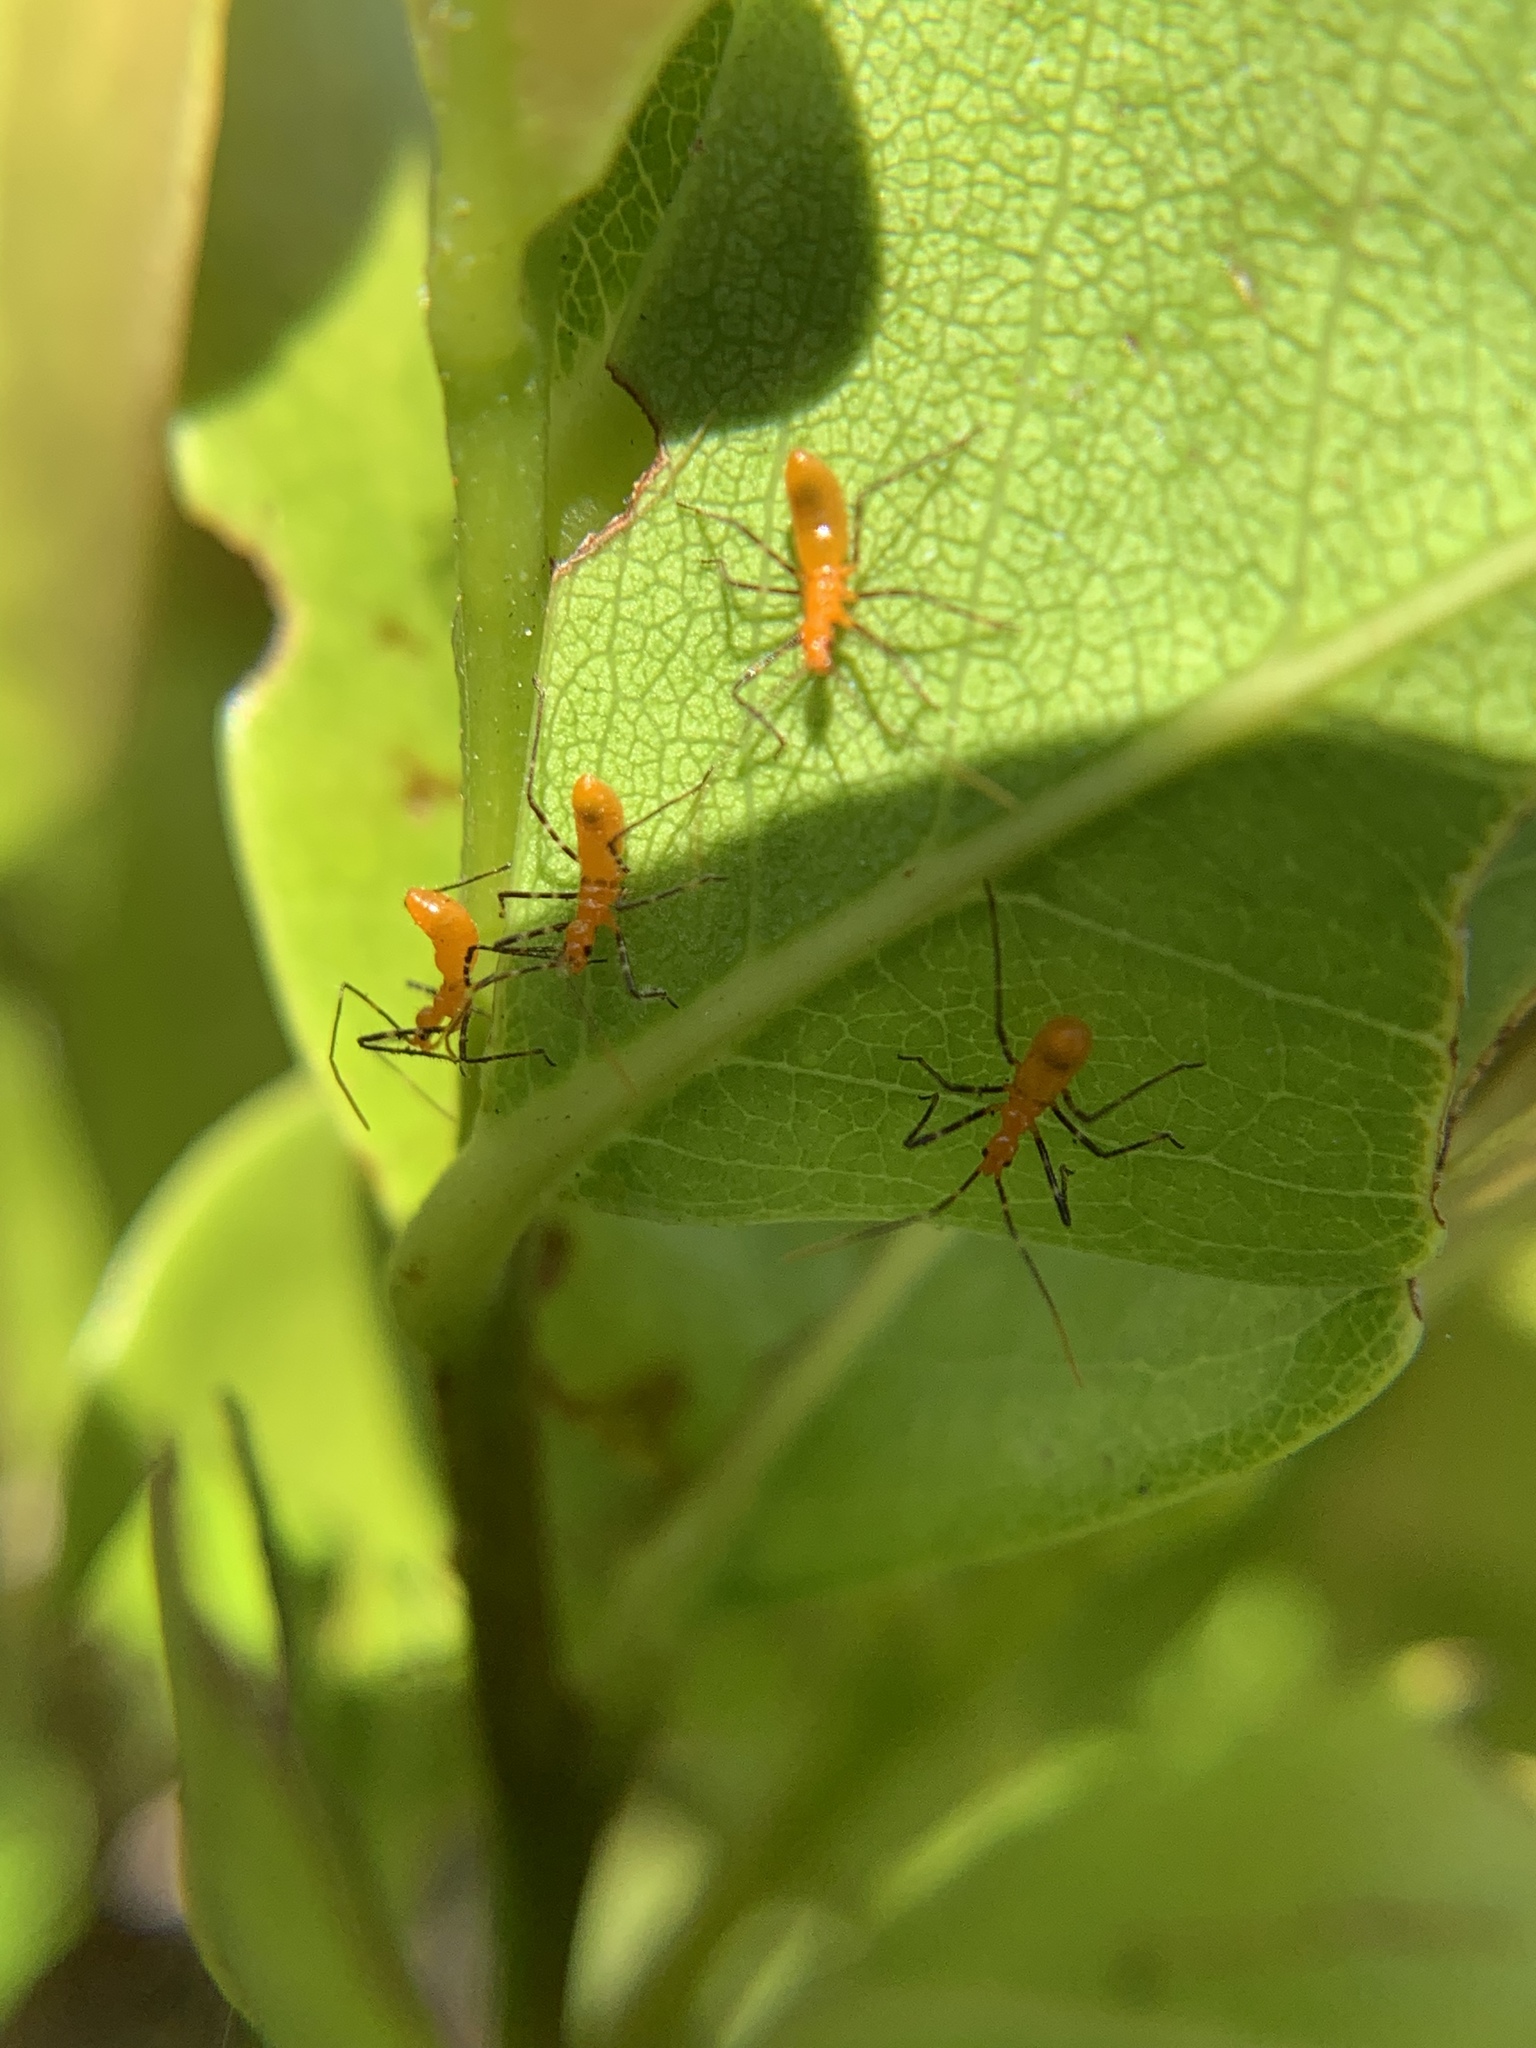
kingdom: Animalia
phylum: Arthropoda
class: Insecta
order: Hemiptera
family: Reduviidae
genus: Zelus
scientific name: Zelus longipes
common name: Milkweed assassin bug
